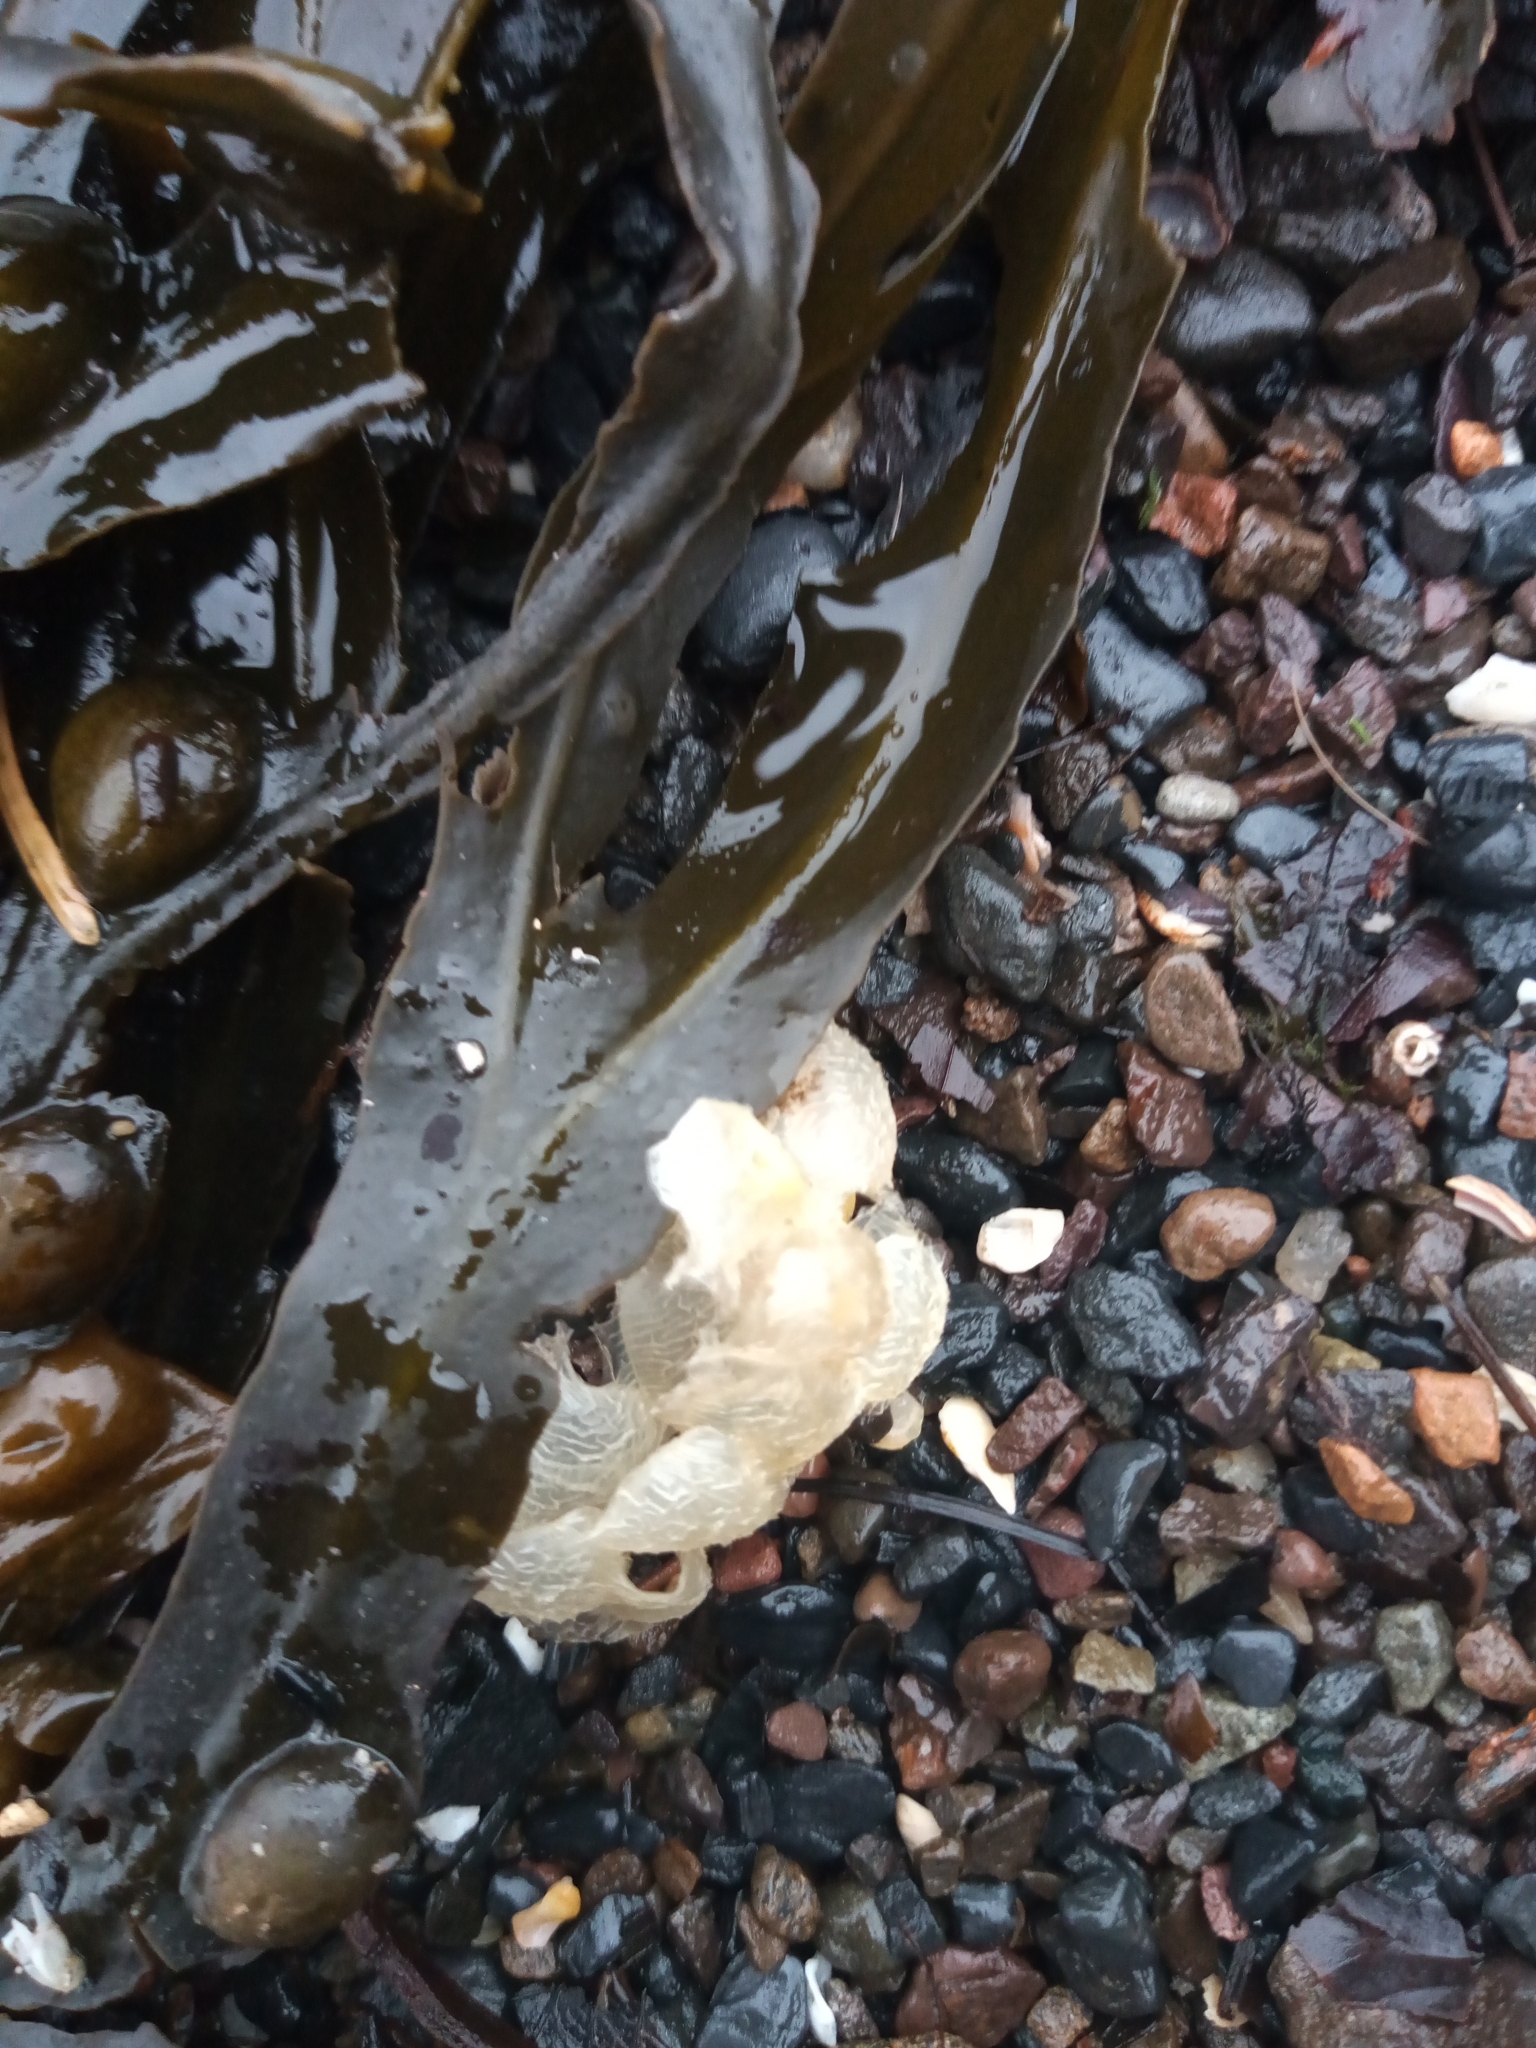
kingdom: Animalia
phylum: Mollusca
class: Gastropoda
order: Neogastropoda
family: Buccinidae
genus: Buccinum
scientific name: Buccinum undatum
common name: Common whelk
